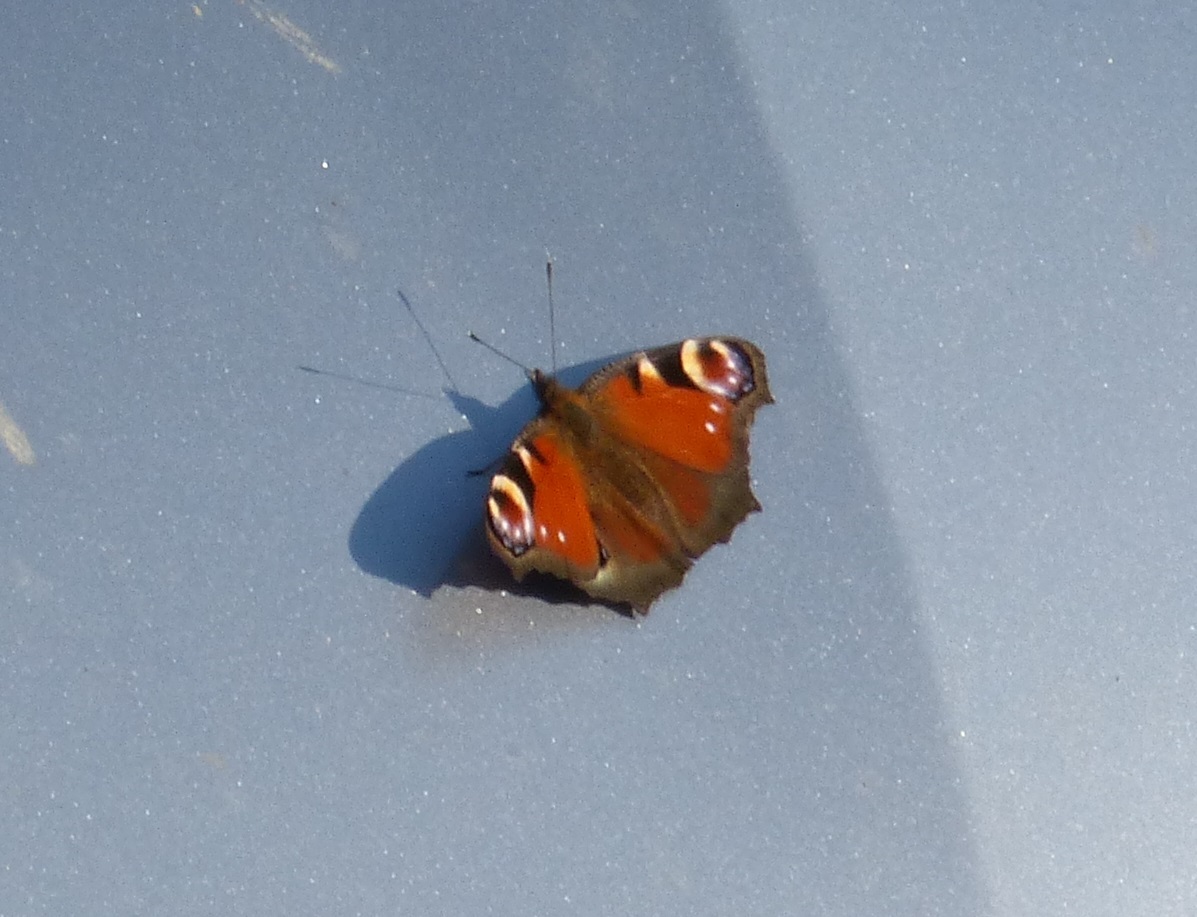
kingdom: Animalia
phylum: Arthropoda
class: Insecta
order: Lepidoptera
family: Nymphalidae
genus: Aglais
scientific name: Aglais io
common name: Peacock
